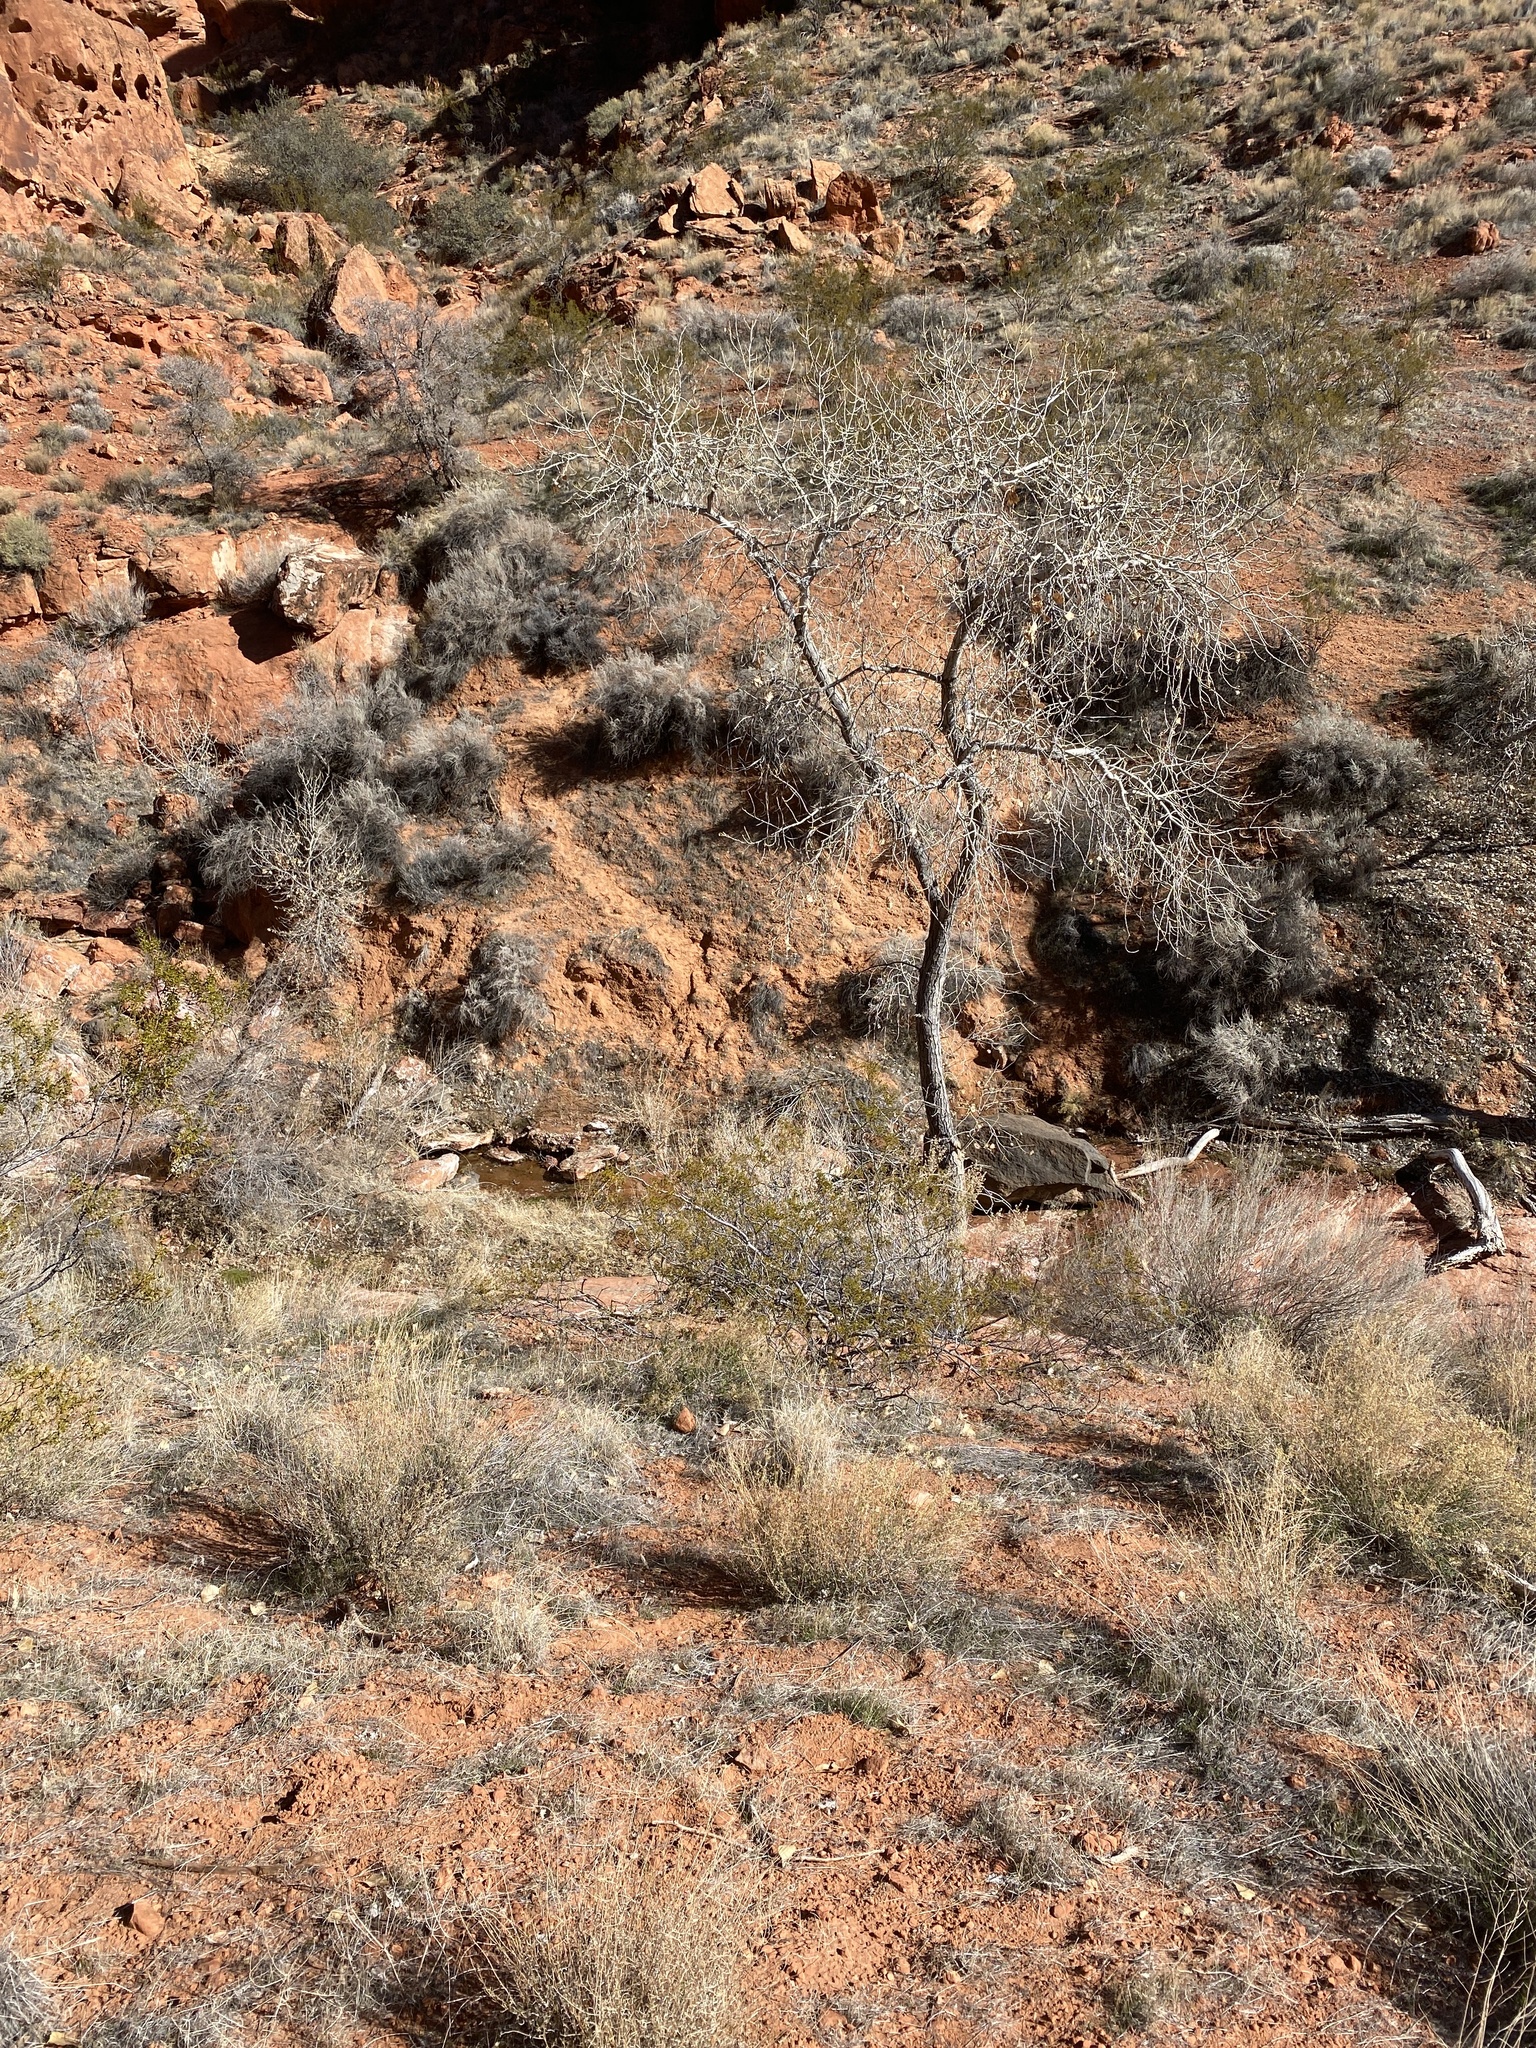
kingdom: Plantae
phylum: Tracheophyta
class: Magnoliopsida
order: Malpighiales
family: Salicaceae
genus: Populus
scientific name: Populus fremontii
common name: Fremont's cottonwood
